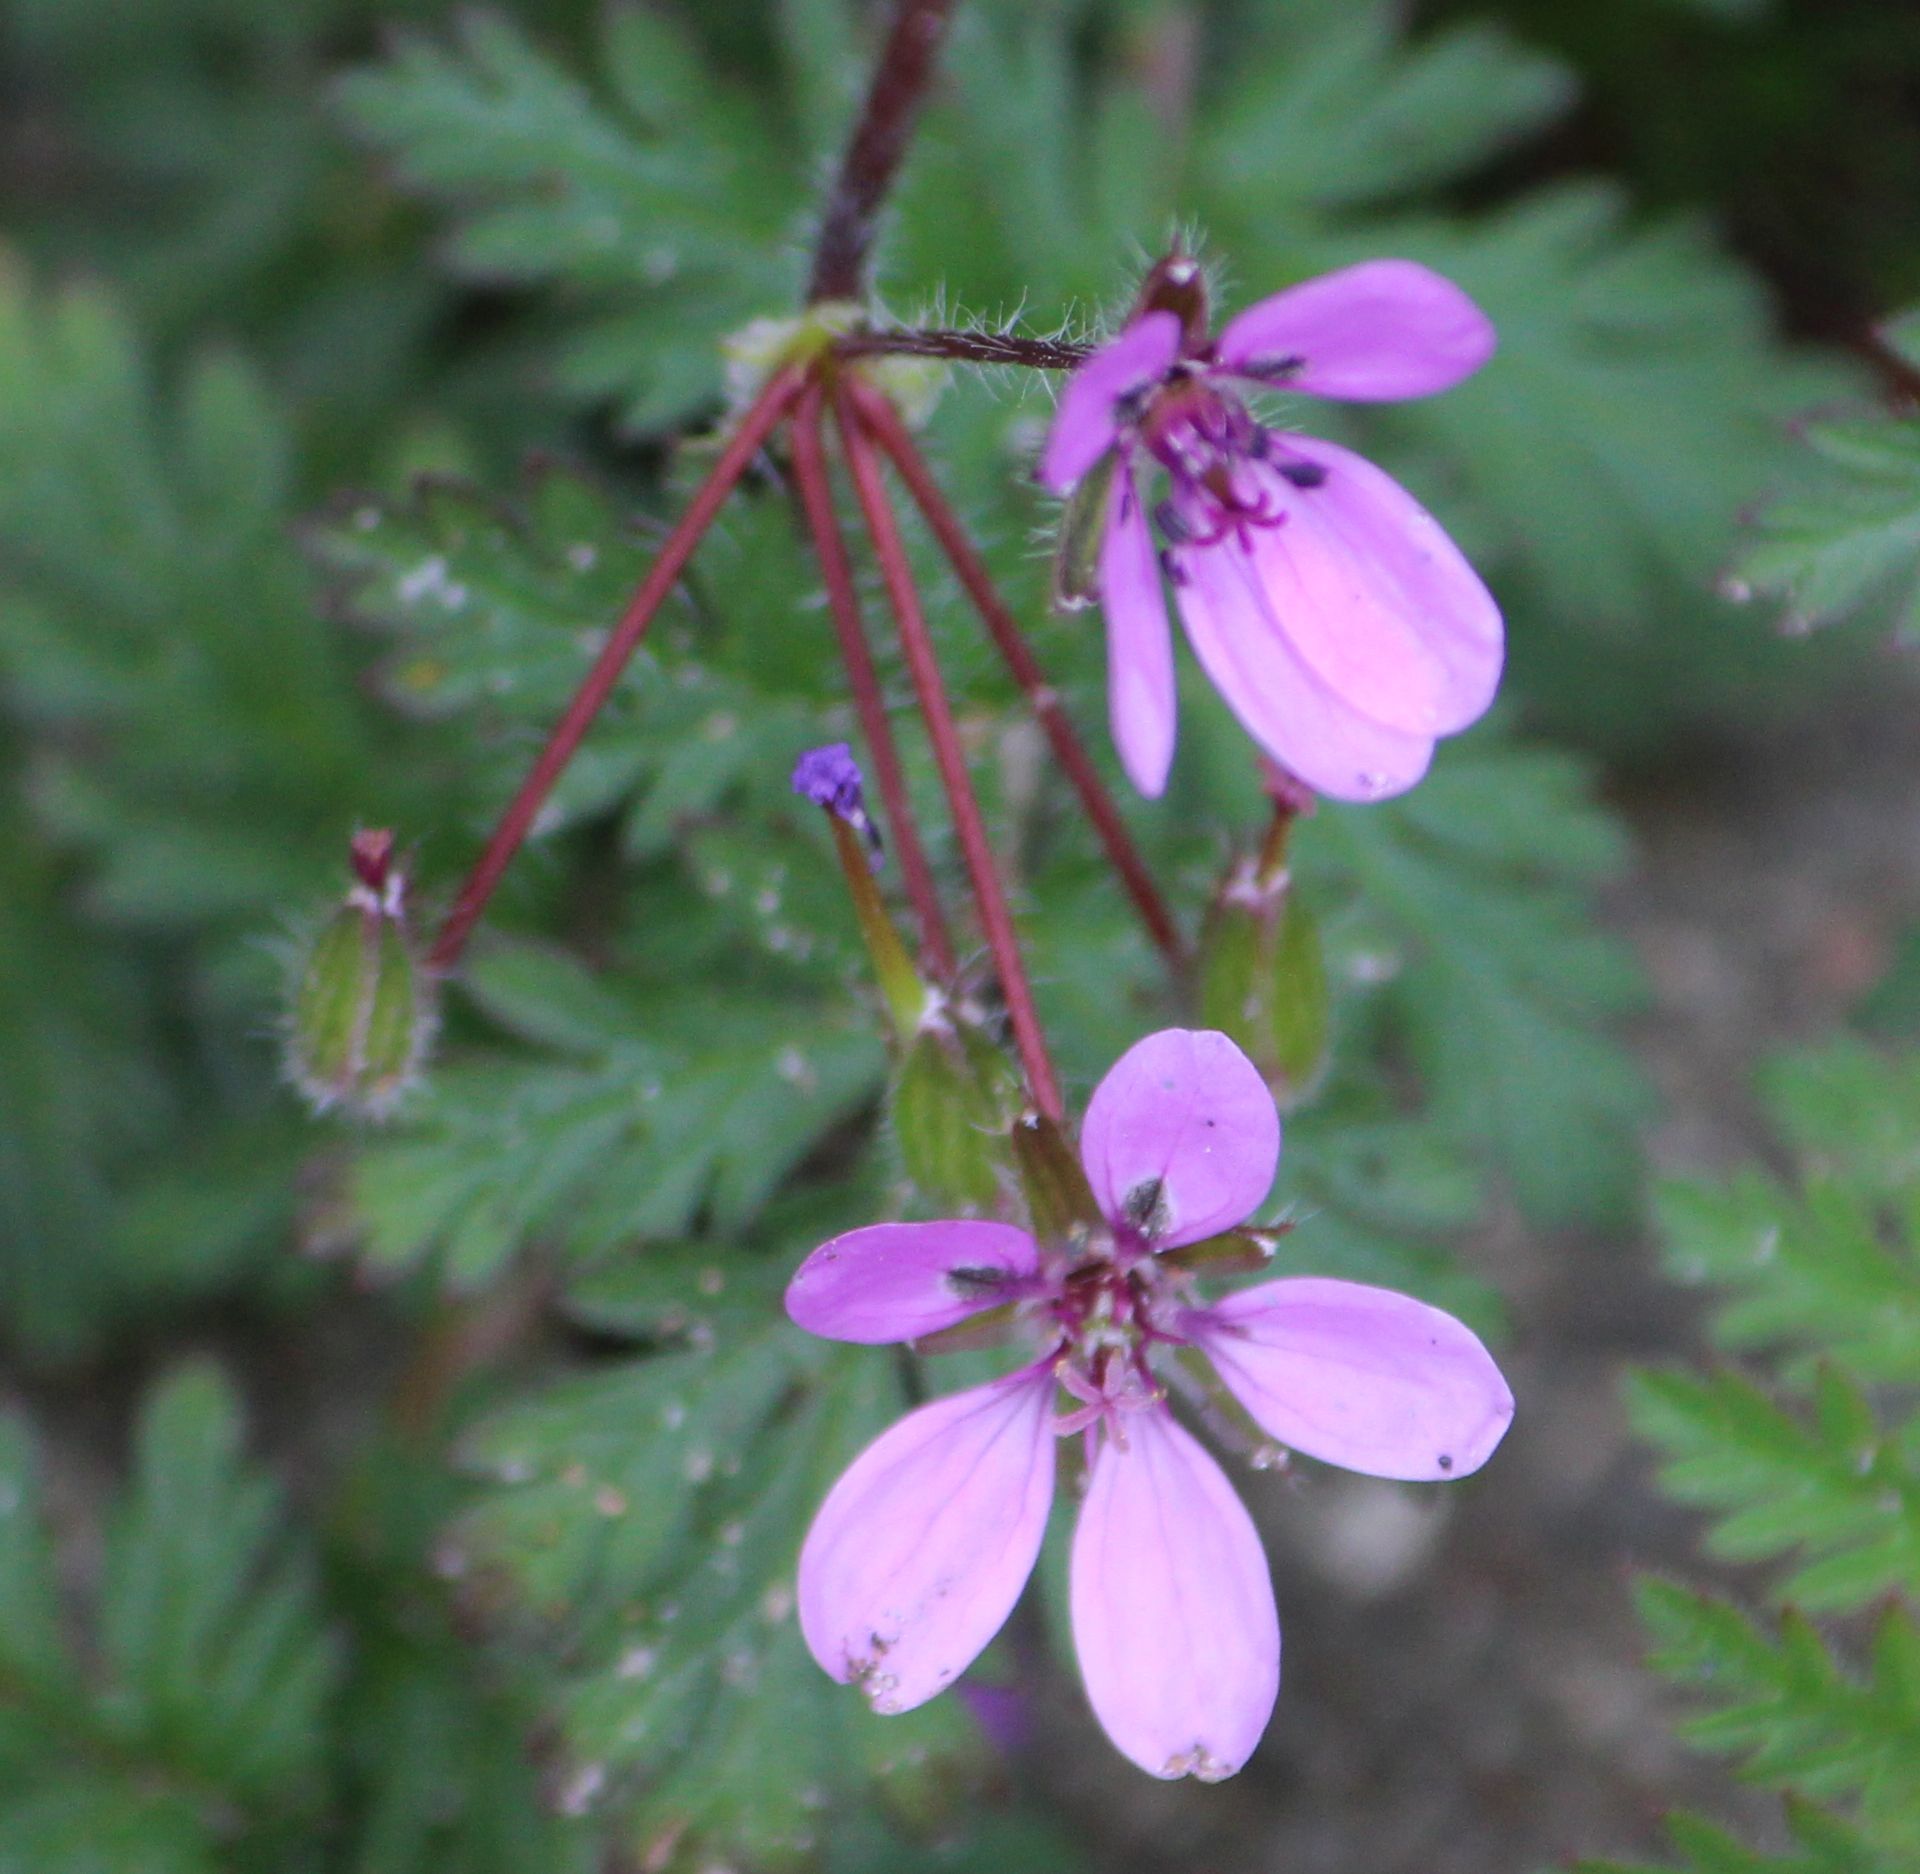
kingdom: Plantae
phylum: Tracheophyta
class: Magnoliopsida
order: Geraniales
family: Geraniaceae
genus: Erodium
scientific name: Erodium cicutarium
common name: Common stork's-bill
